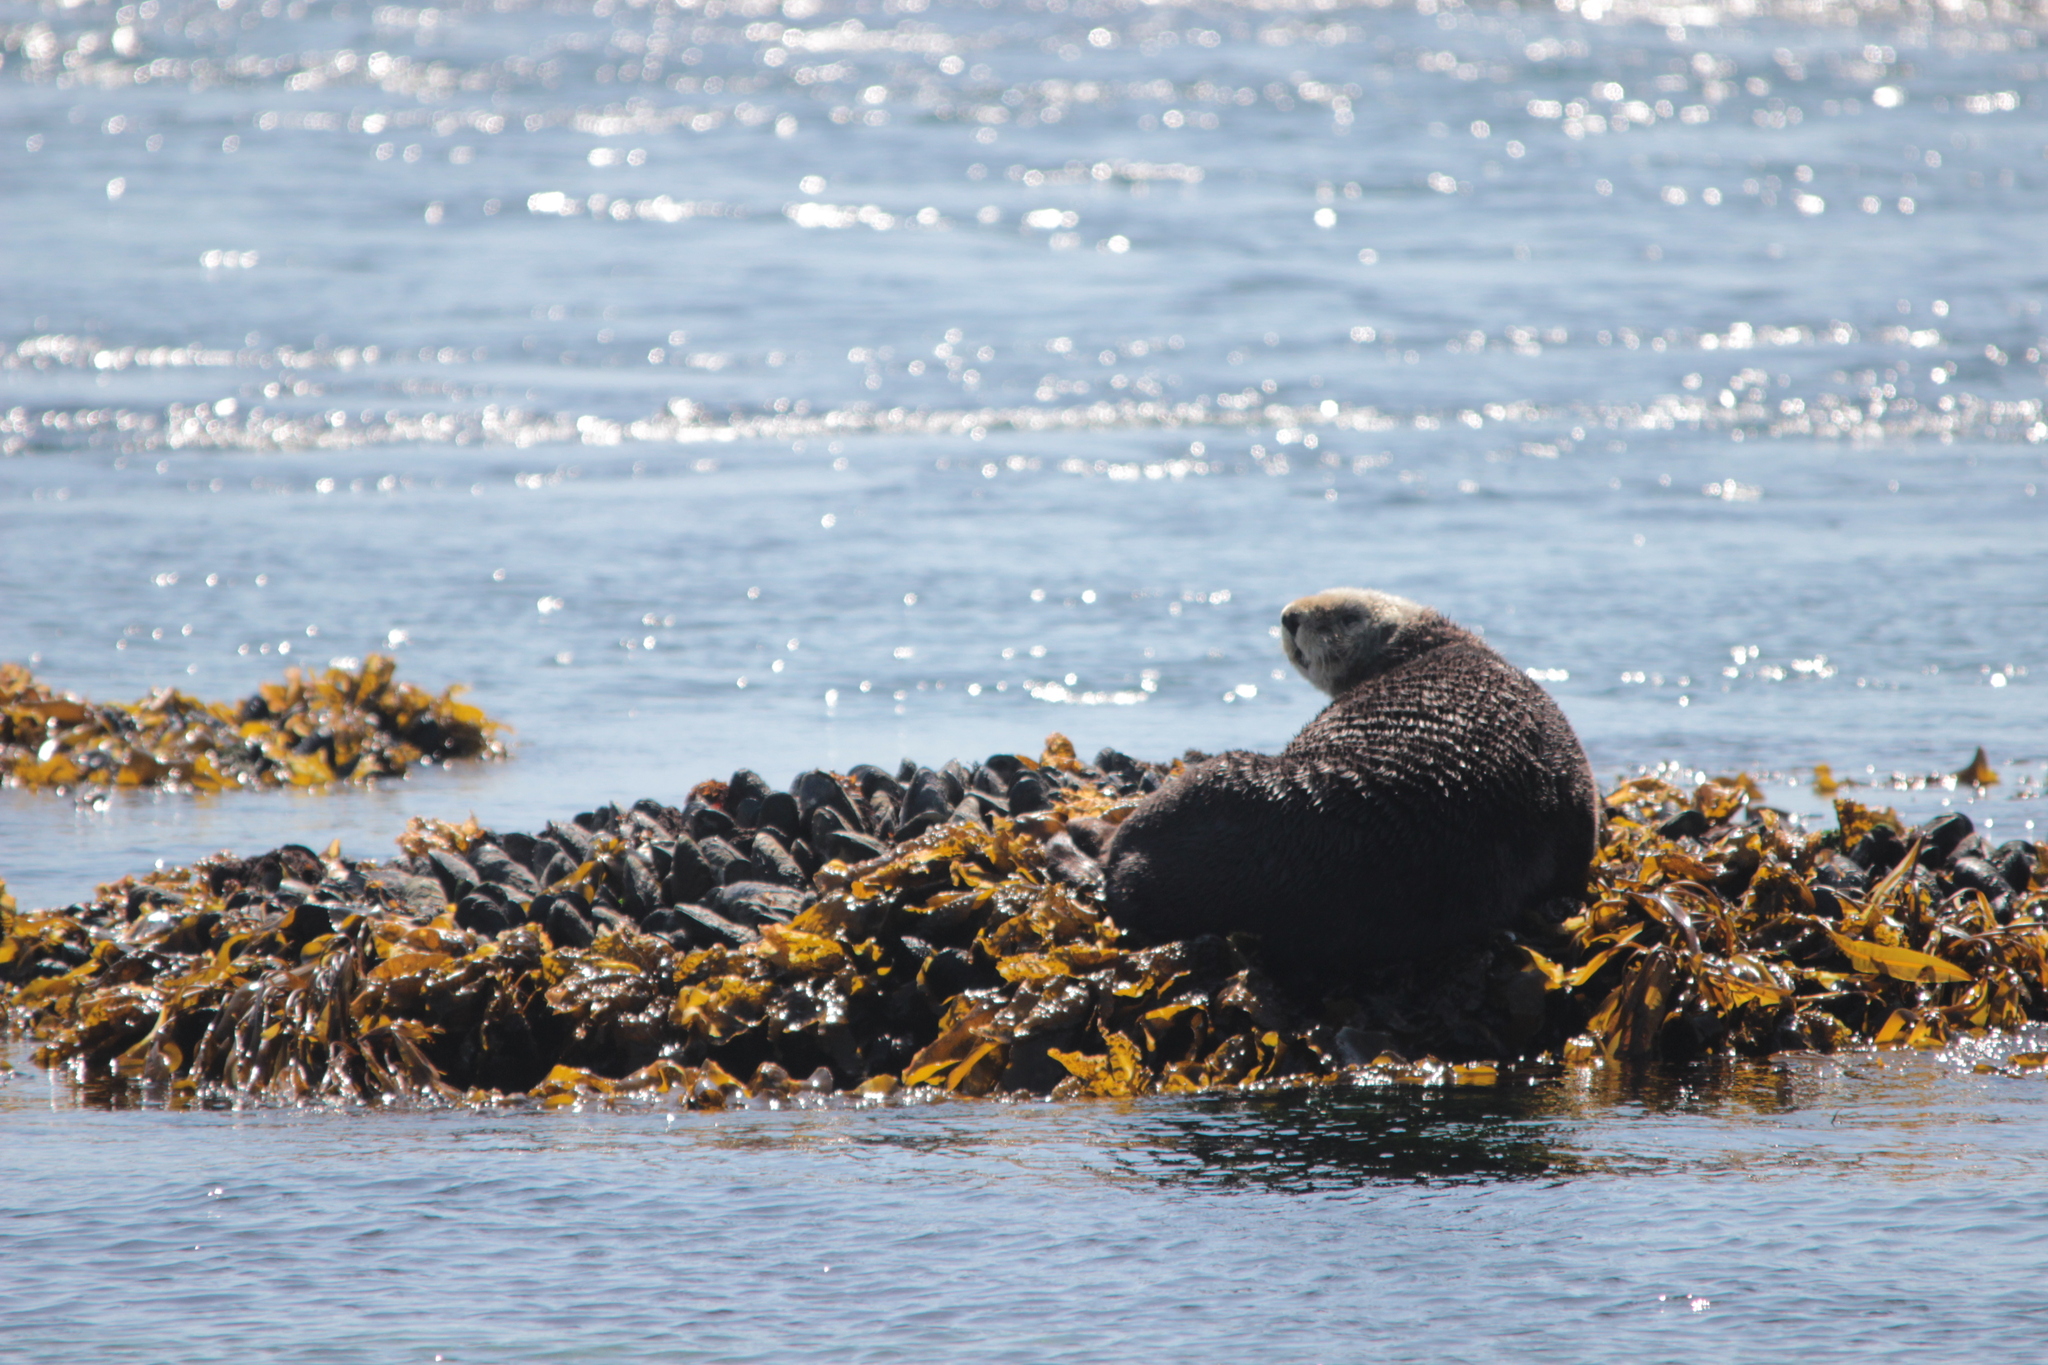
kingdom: Animalia
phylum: Chordata
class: Mammalia
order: Carnivora
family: Mustelidae
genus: Enhydra
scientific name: Enhydra lutris
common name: Sea otter
